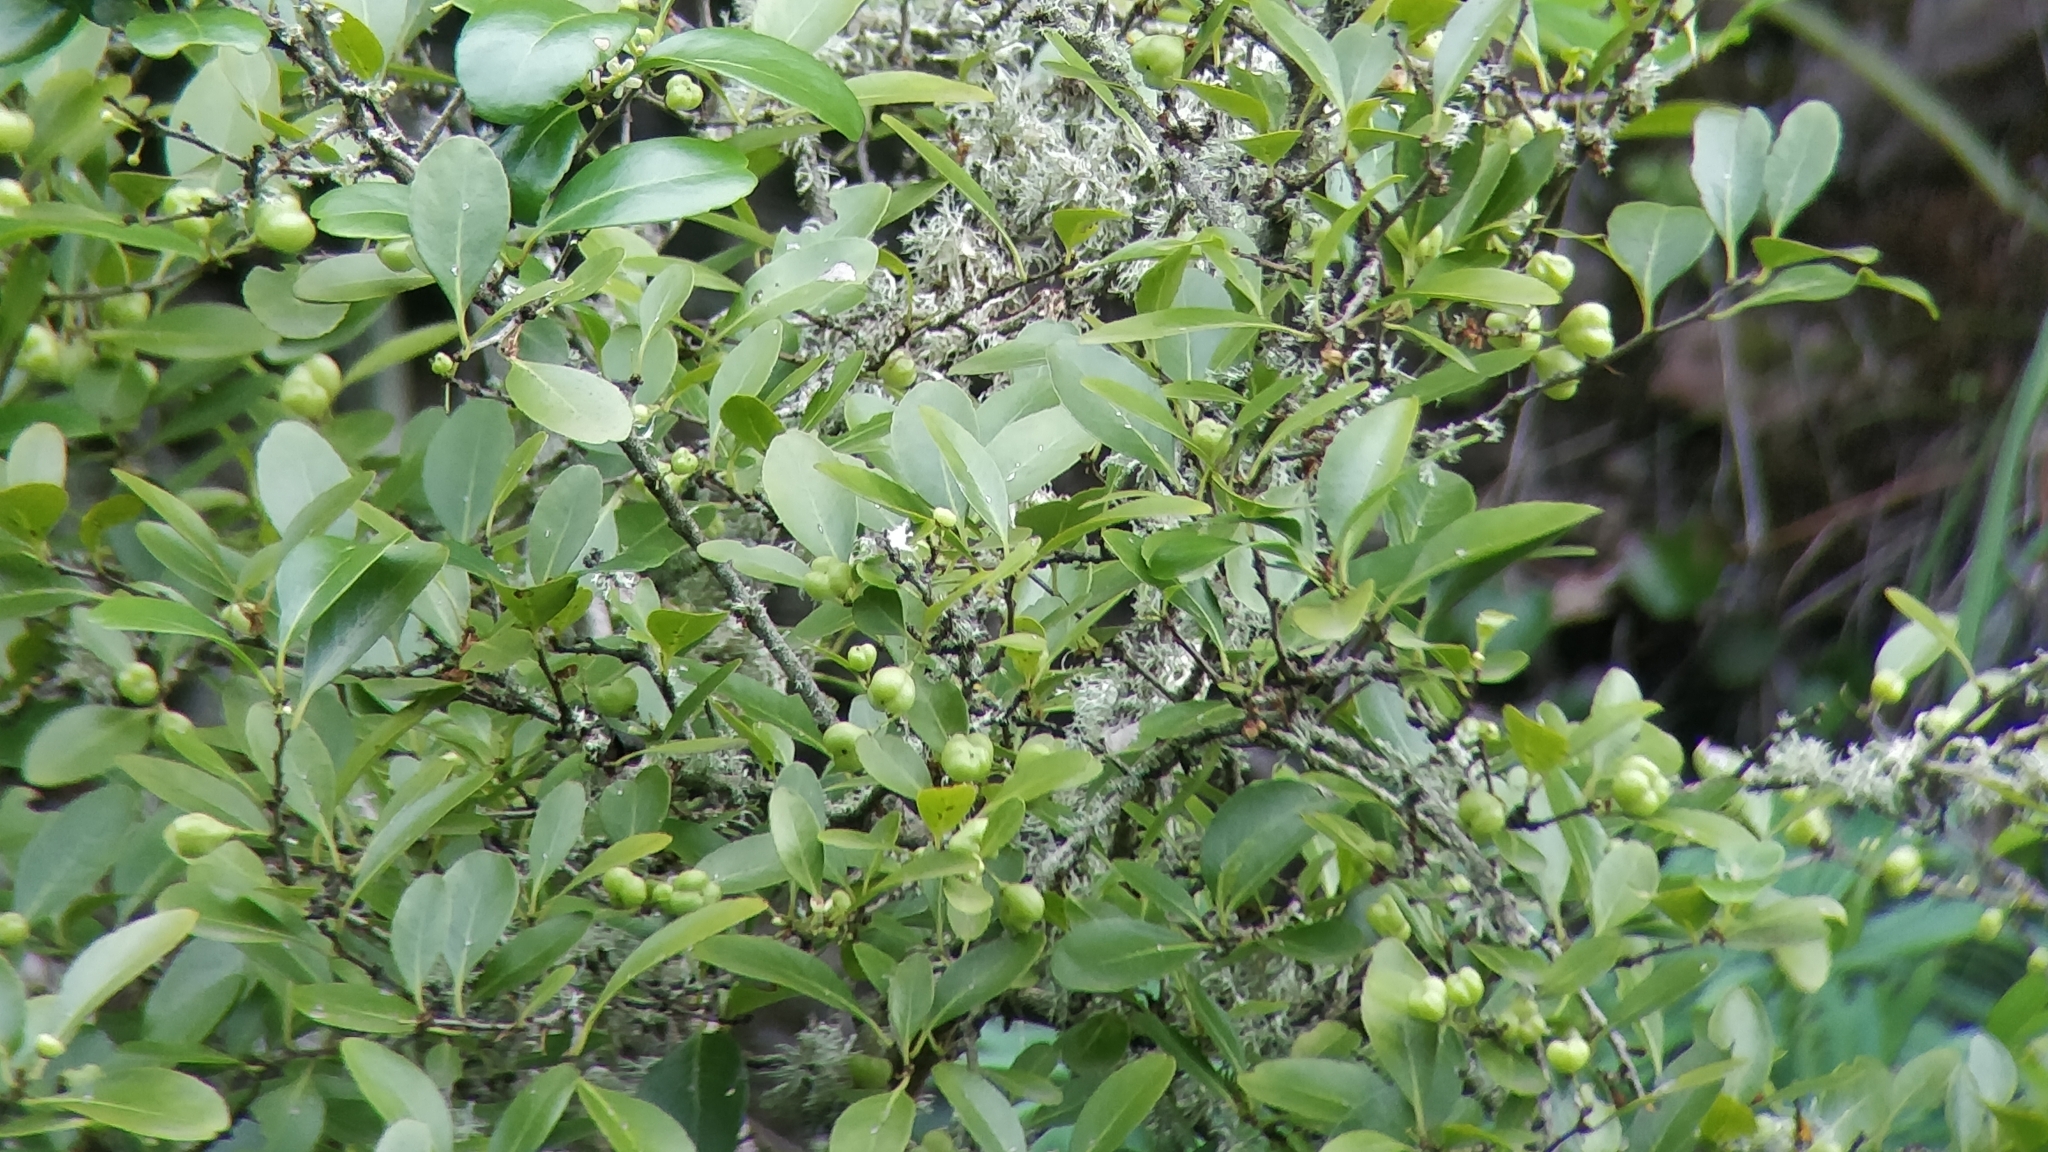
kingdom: Plantae
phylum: Tracheophyta
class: Magnoliopsida
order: Celastrales
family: Celastraceae
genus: Gymnosporia
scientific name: Gymnosporia cassinoides
